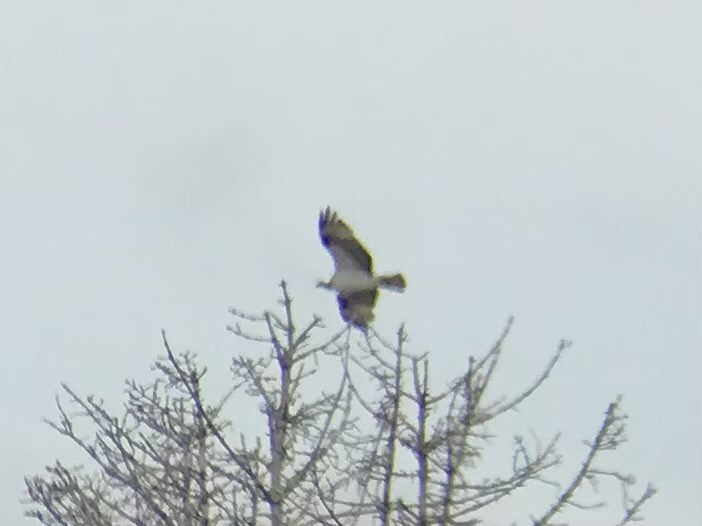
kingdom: Animalia
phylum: Chordata
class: Aves
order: Accipitriformes
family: Pandionidae
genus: Pandion
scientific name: Pandion haliaetus
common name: Osprey
